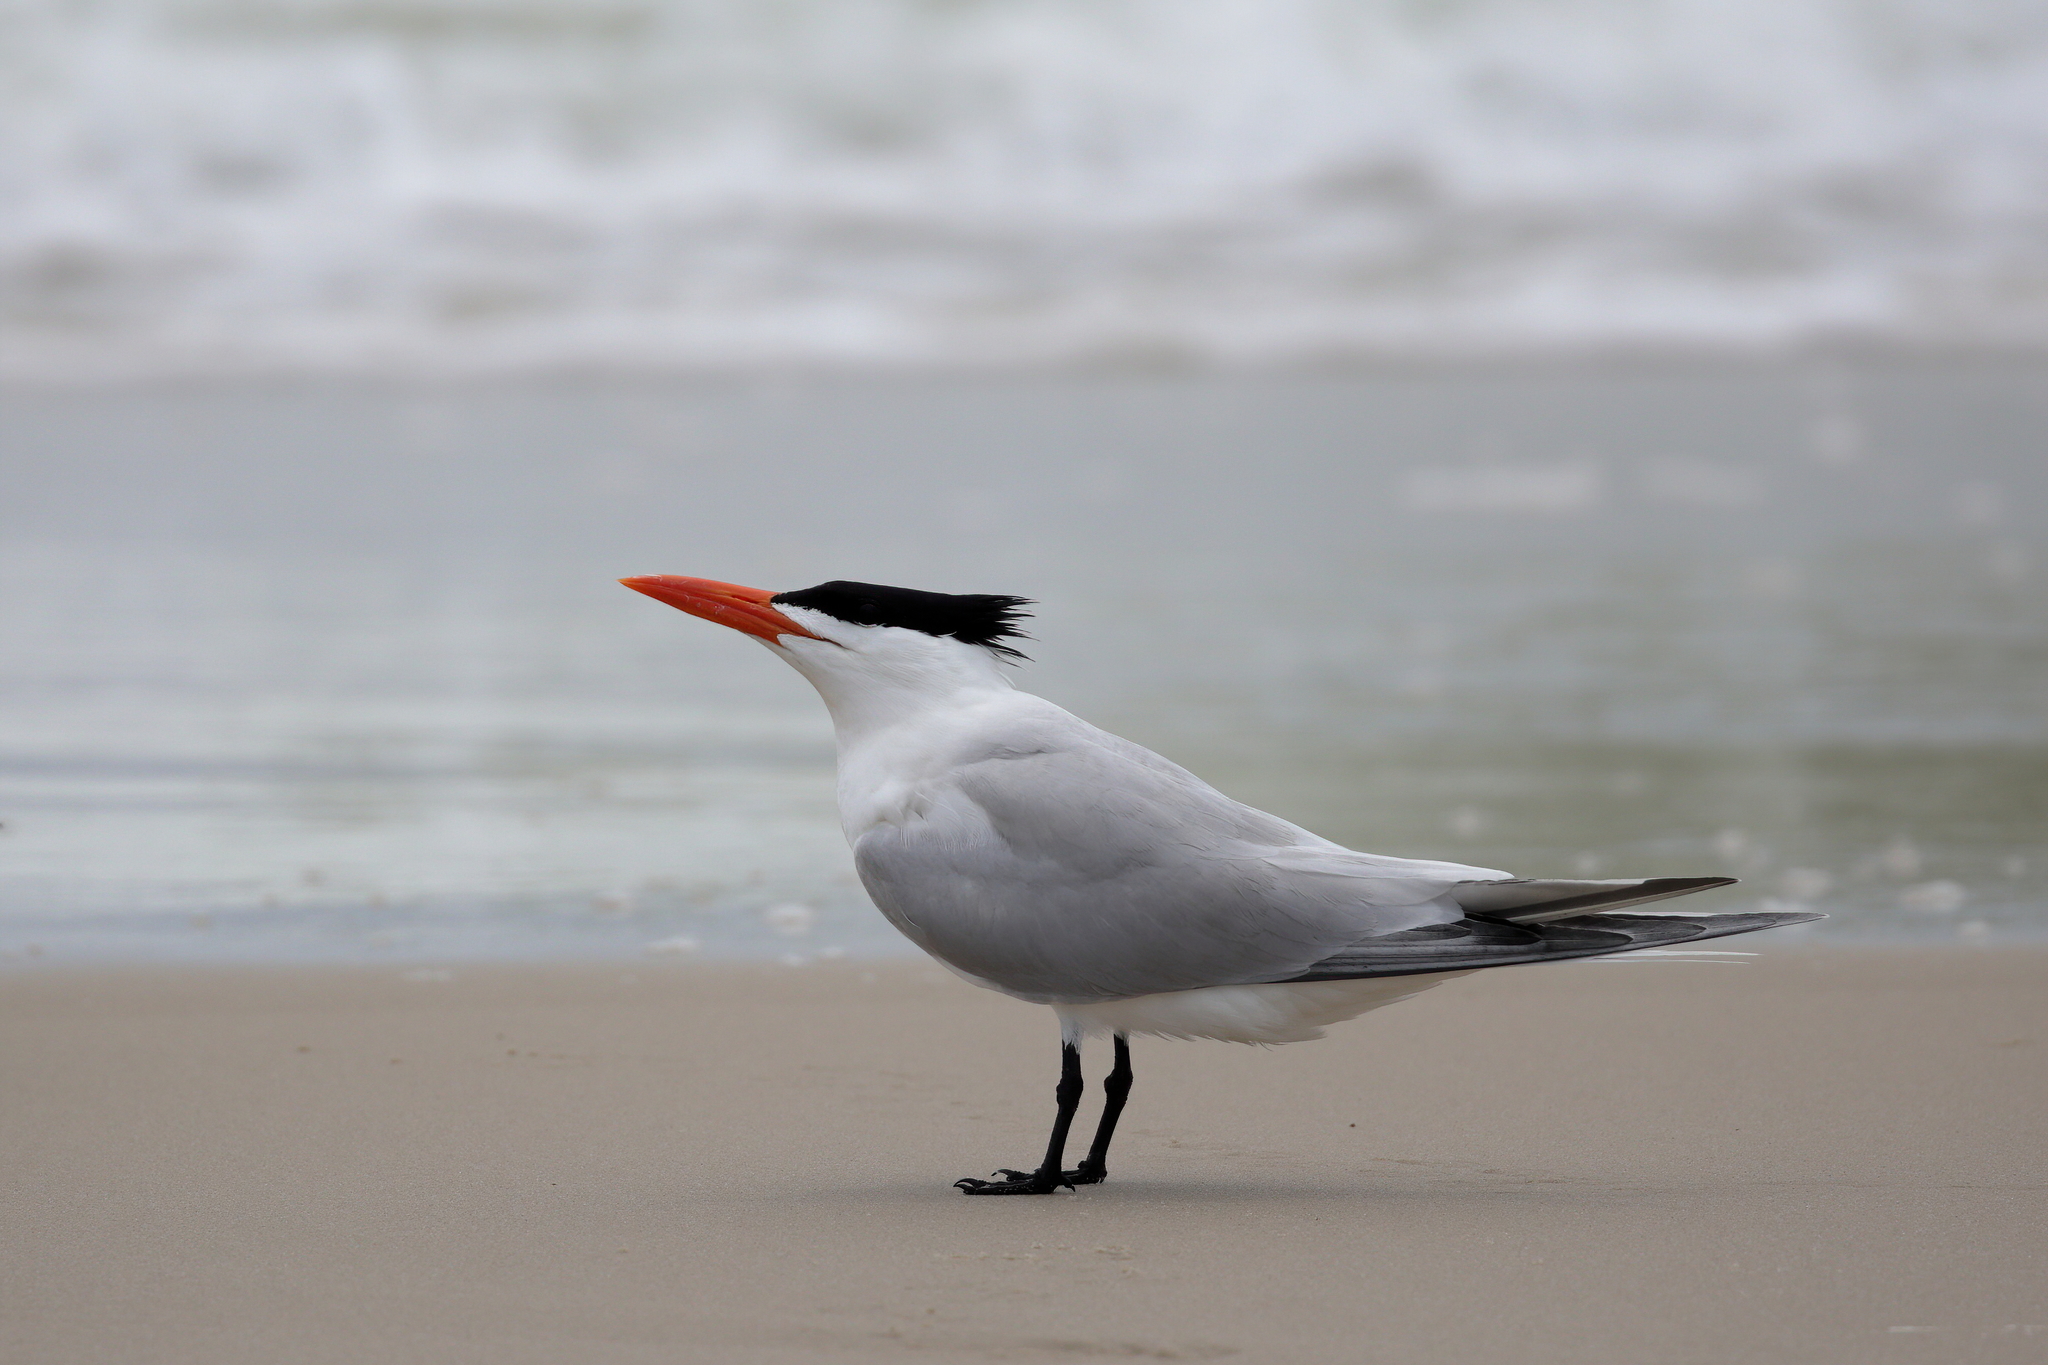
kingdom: Animalia
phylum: Chordata
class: Aves
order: Charadriiformes
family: Laridae
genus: Hydroprogne
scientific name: Hydroprogne caspia
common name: Caspian tern
